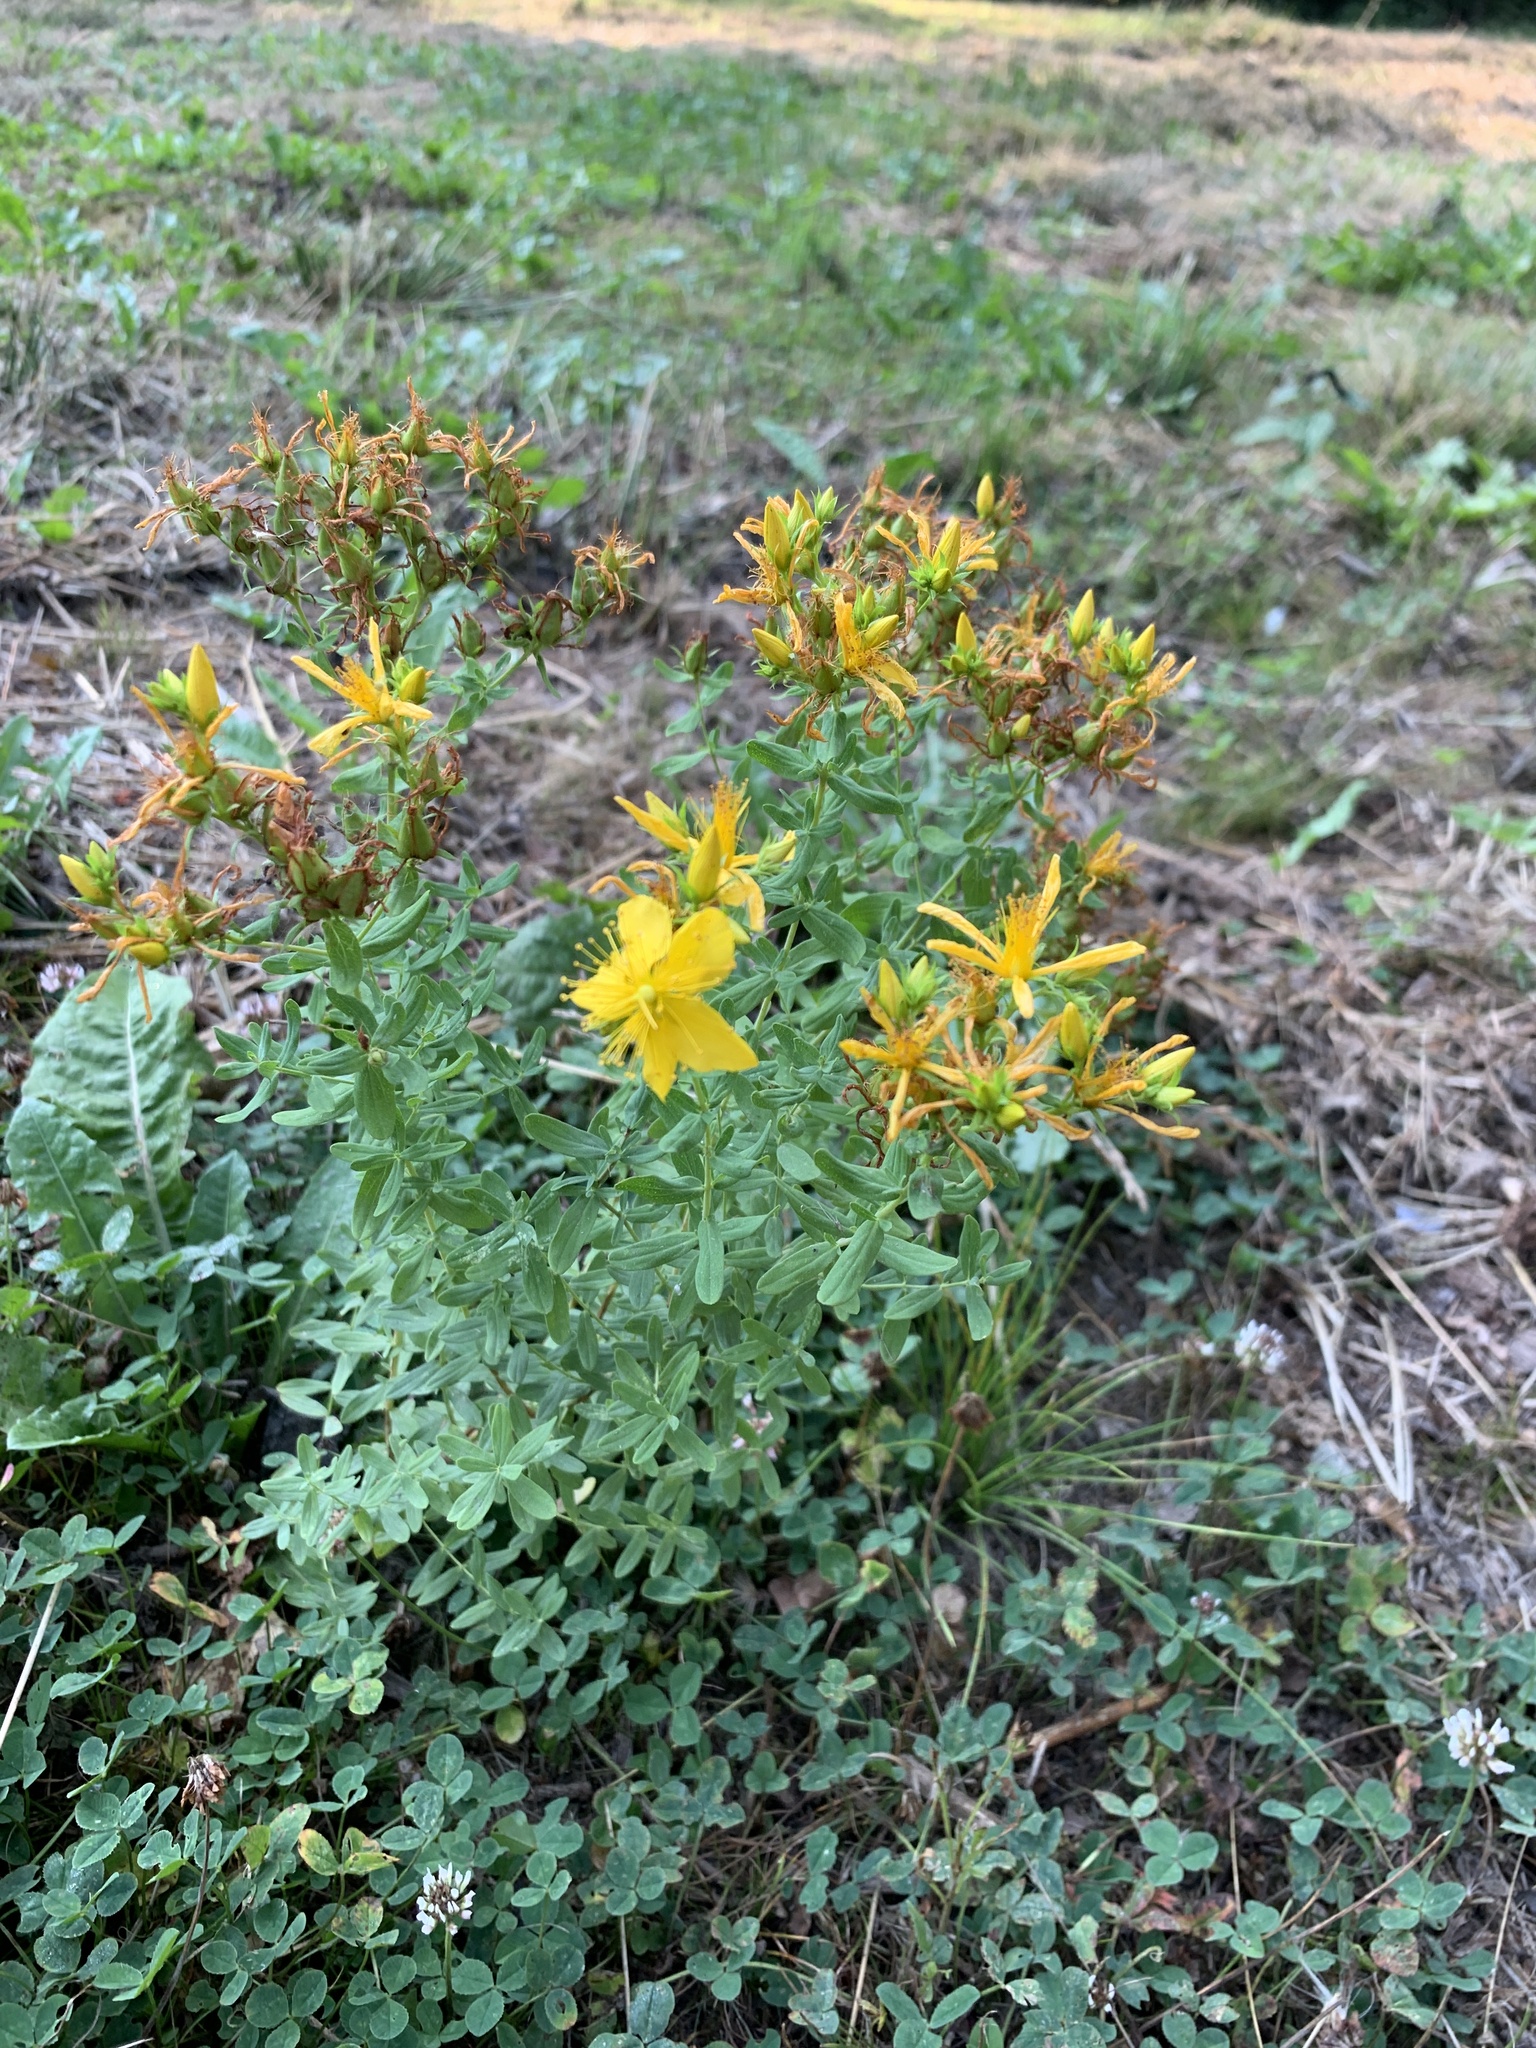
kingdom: Plantae
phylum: Tracheophyta
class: Magnoliopsida
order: Malpighiales
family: Hypericaceae
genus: Hypericum
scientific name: Hypericum perforatum
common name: Common st. johnswort
